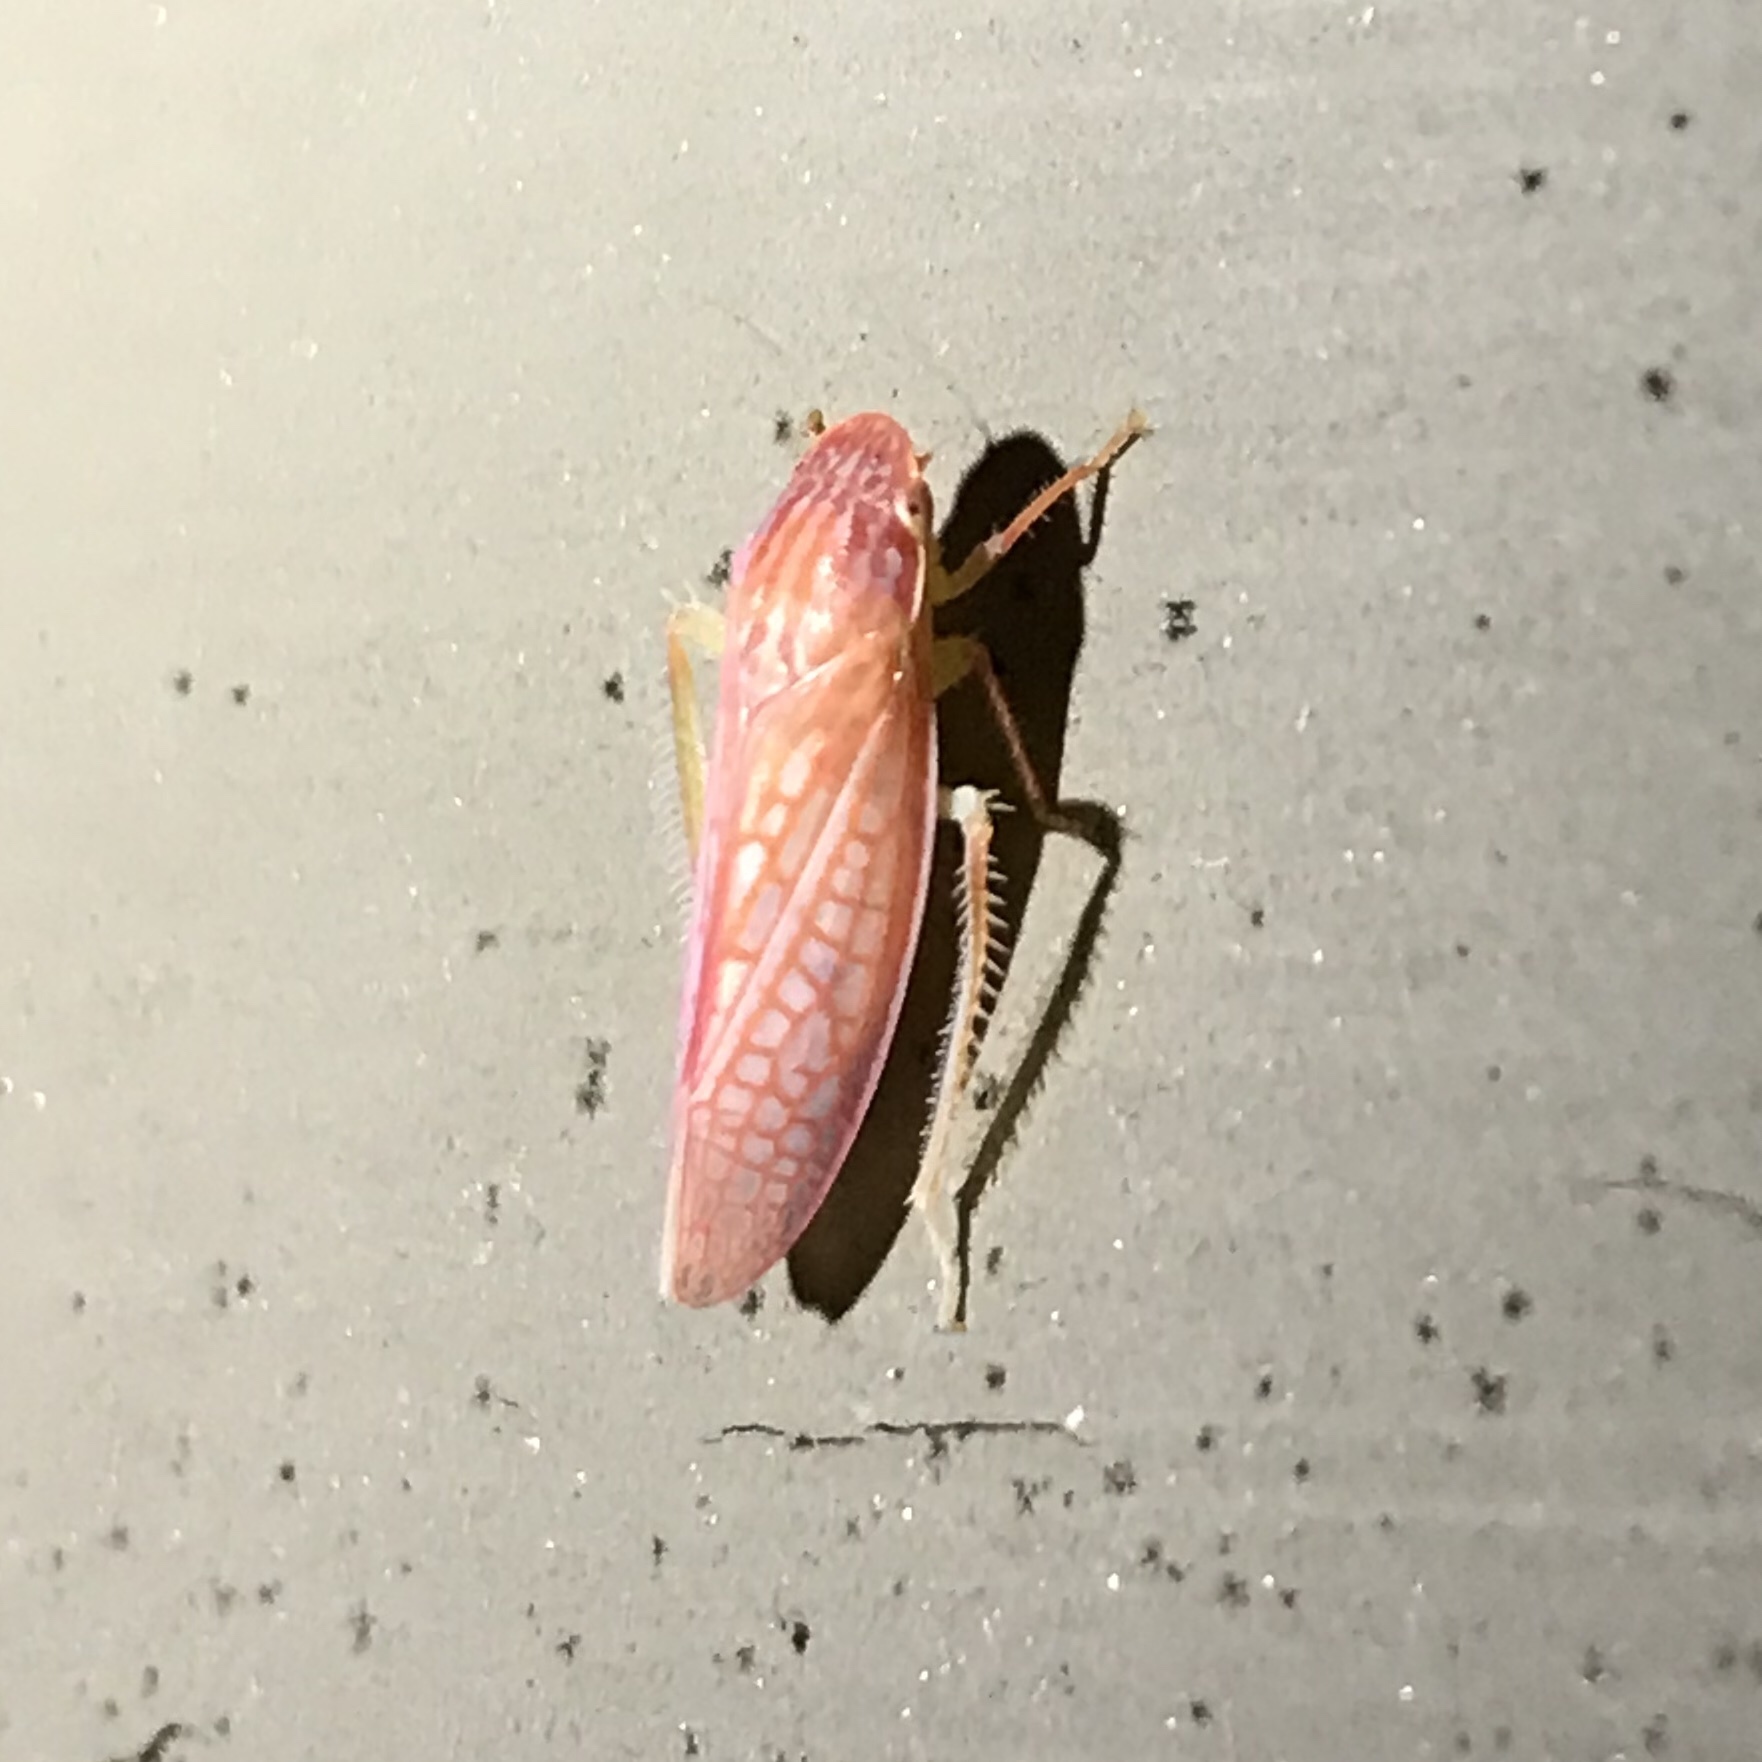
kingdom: Animalia
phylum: Arthropoda
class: Insecta
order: Hemiptera
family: Cicadellidae
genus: Gyponana
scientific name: Gyponana gladia
